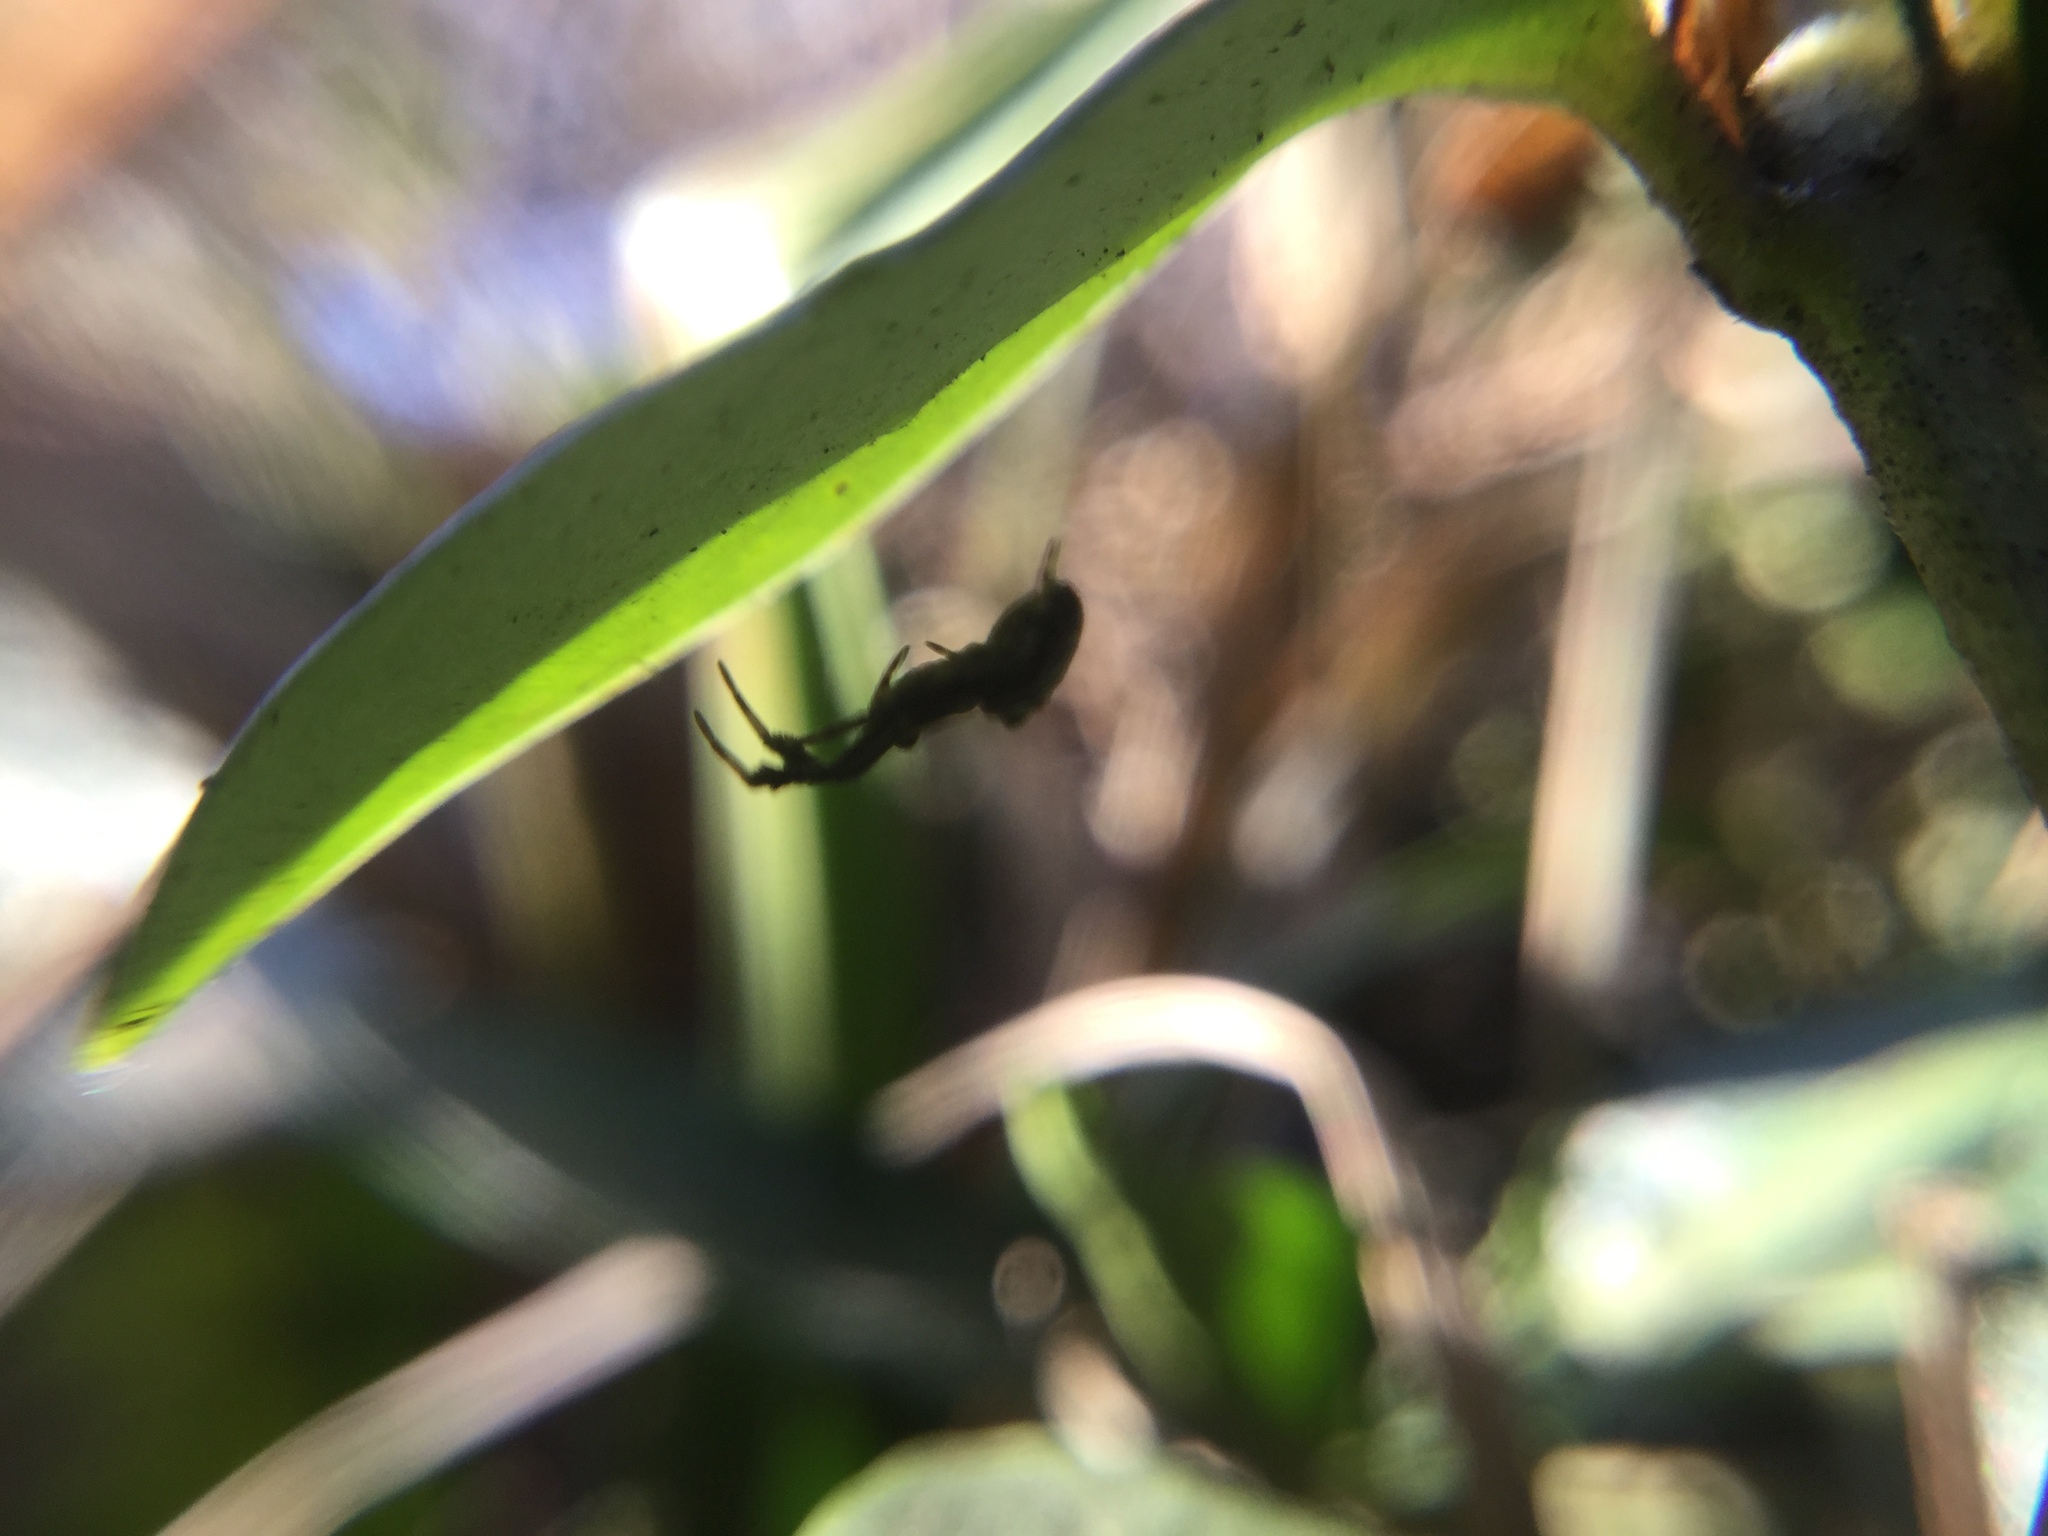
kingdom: Animalia
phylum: Arthropoda
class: Arachnida
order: Araneae
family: Uloboridae
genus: Uloborus
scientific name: Uloborus glomosus
